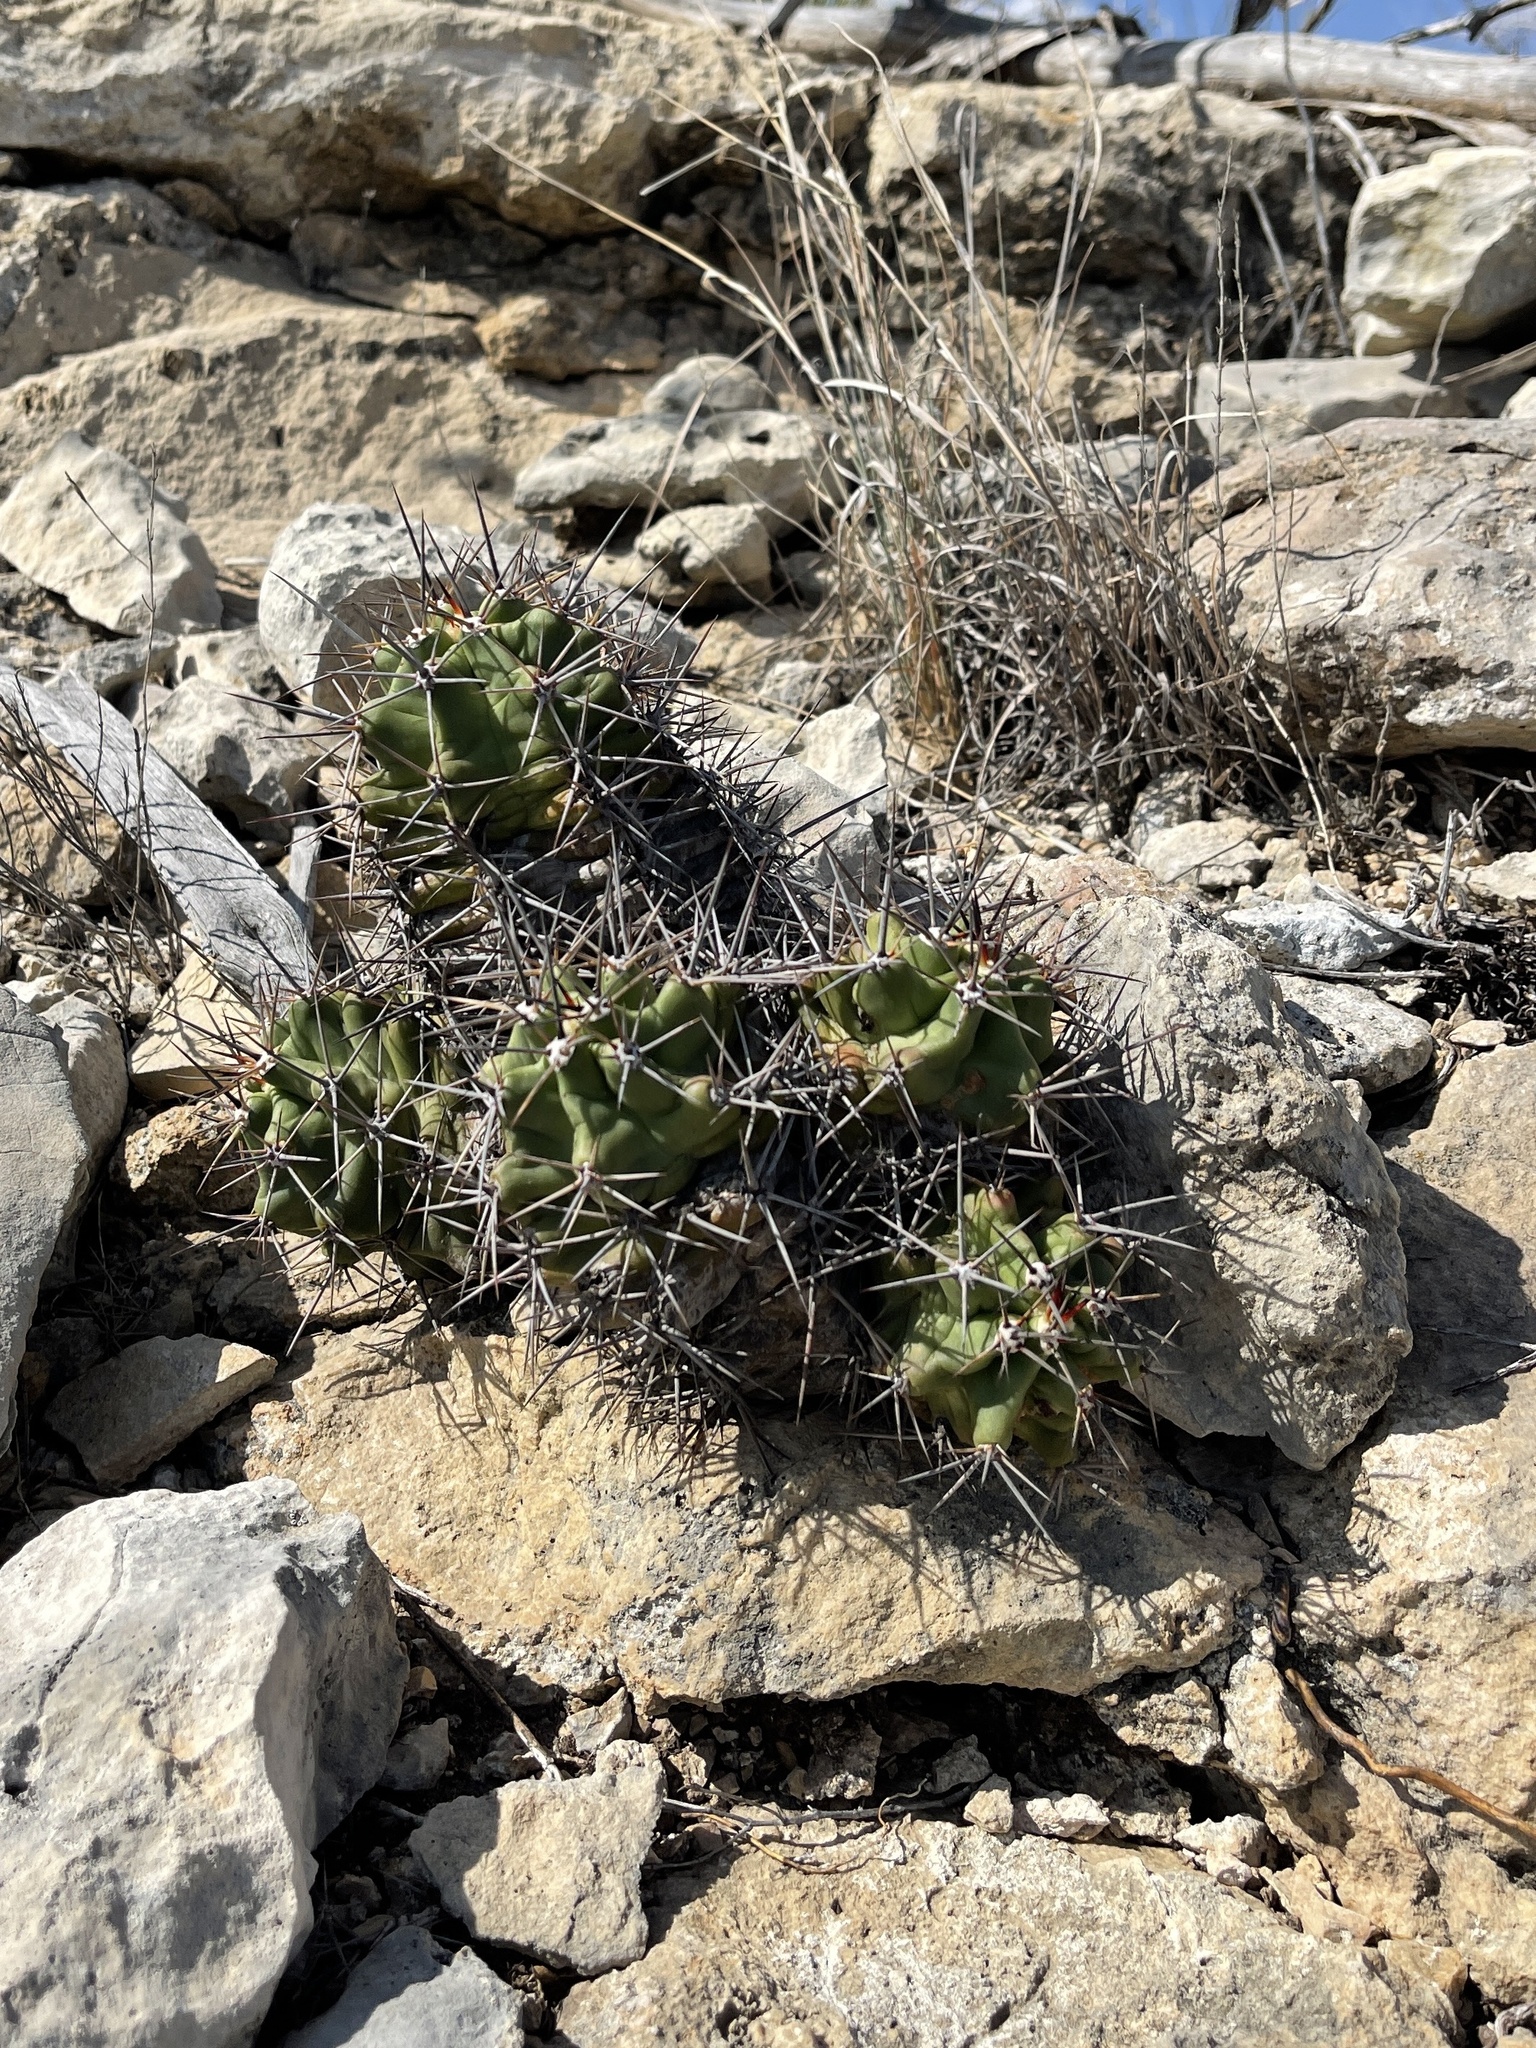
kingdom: Plantae
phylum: Tracheophyta
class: Magnoliopsida
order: Caryophyllales
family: Cactaceae
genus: Echinocereus
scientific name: Echinocereus coccineus
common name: Scarlet hedgehog cactus
